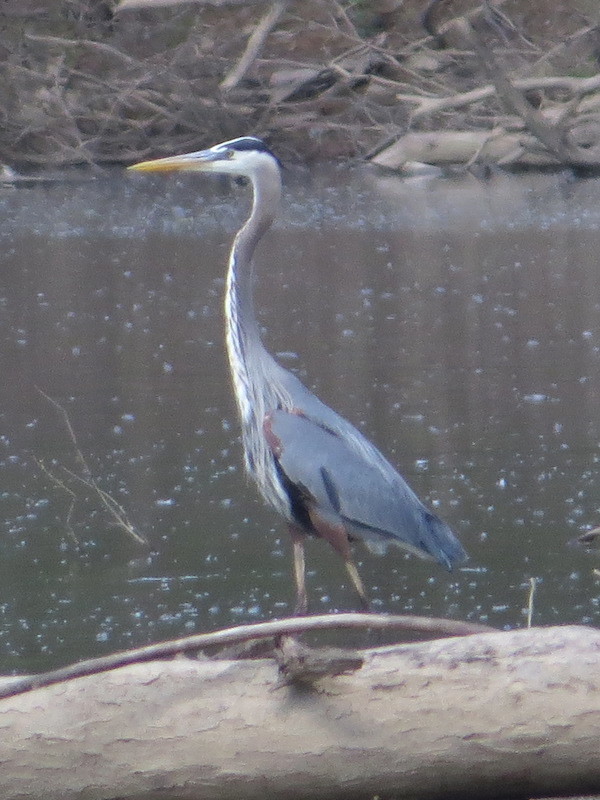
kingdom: Animalia
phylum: Chordata
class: Aves
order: Pelecaniformes
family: Ardeidae
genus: Ardea
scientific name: Ardea herodias
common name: Great blue heron
